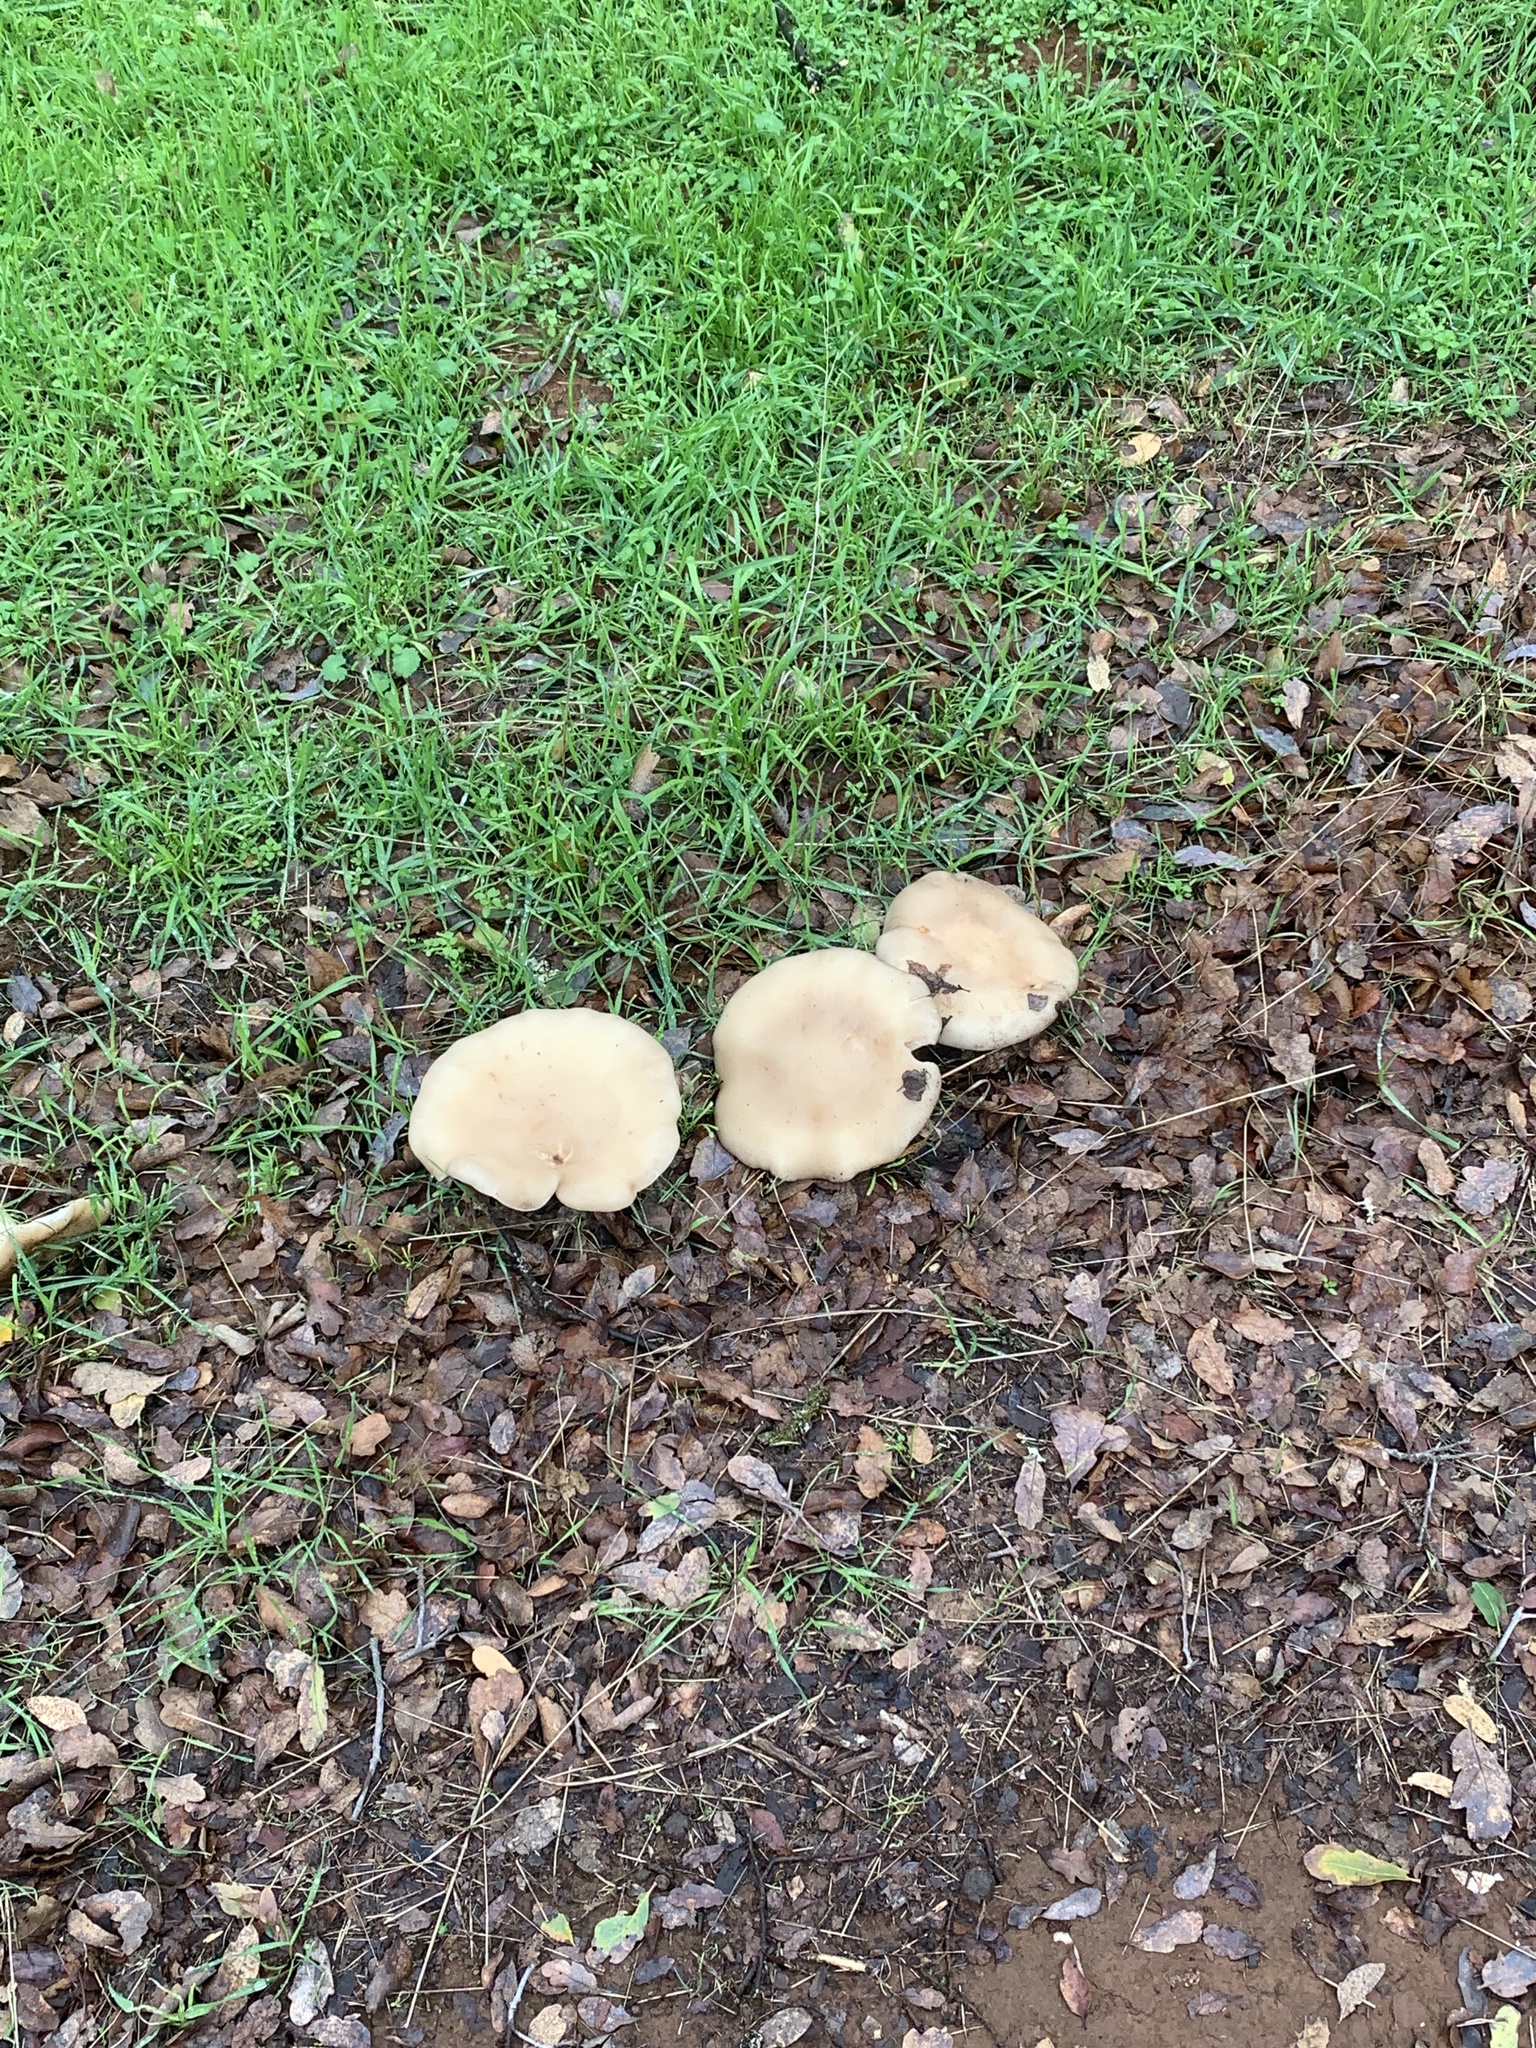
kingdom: Fungi
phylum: Basidiomycota
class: Agaricomycetes
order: Agaricales
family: Tricholomataceae
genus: Collybia
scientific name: Collybia
